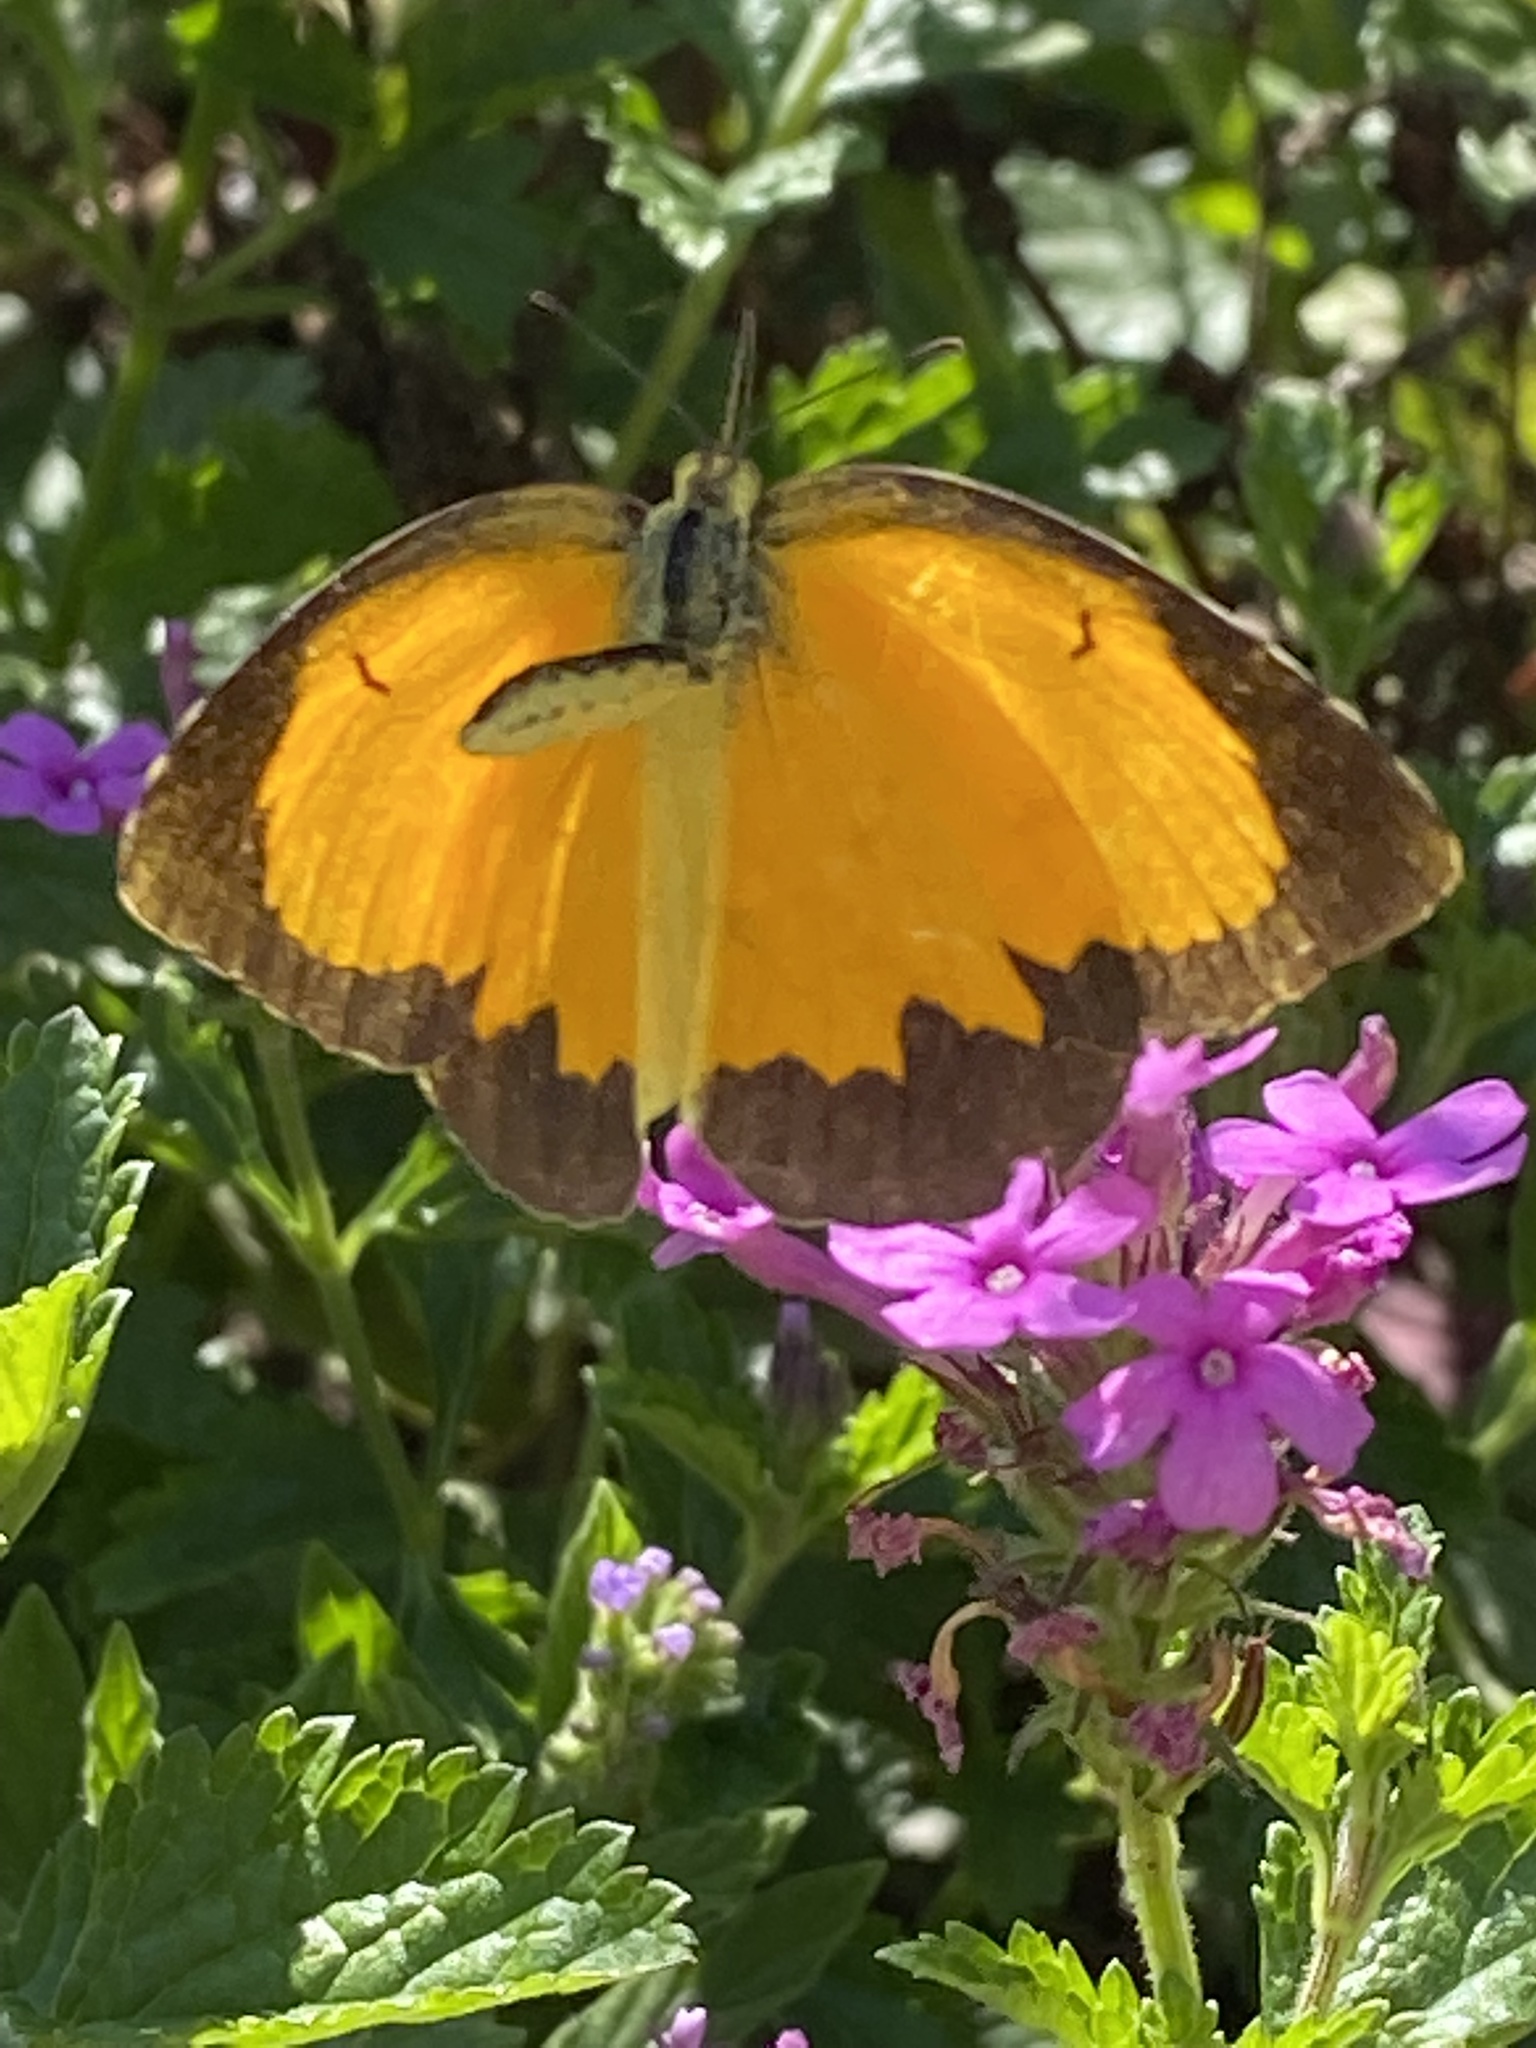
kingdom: Animalia
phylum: Arthropoda
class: Insecta
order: Lepidoptera
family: Pieridae
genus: Abaeis
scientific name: Abaeis nicippe
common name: Sleepy orange
